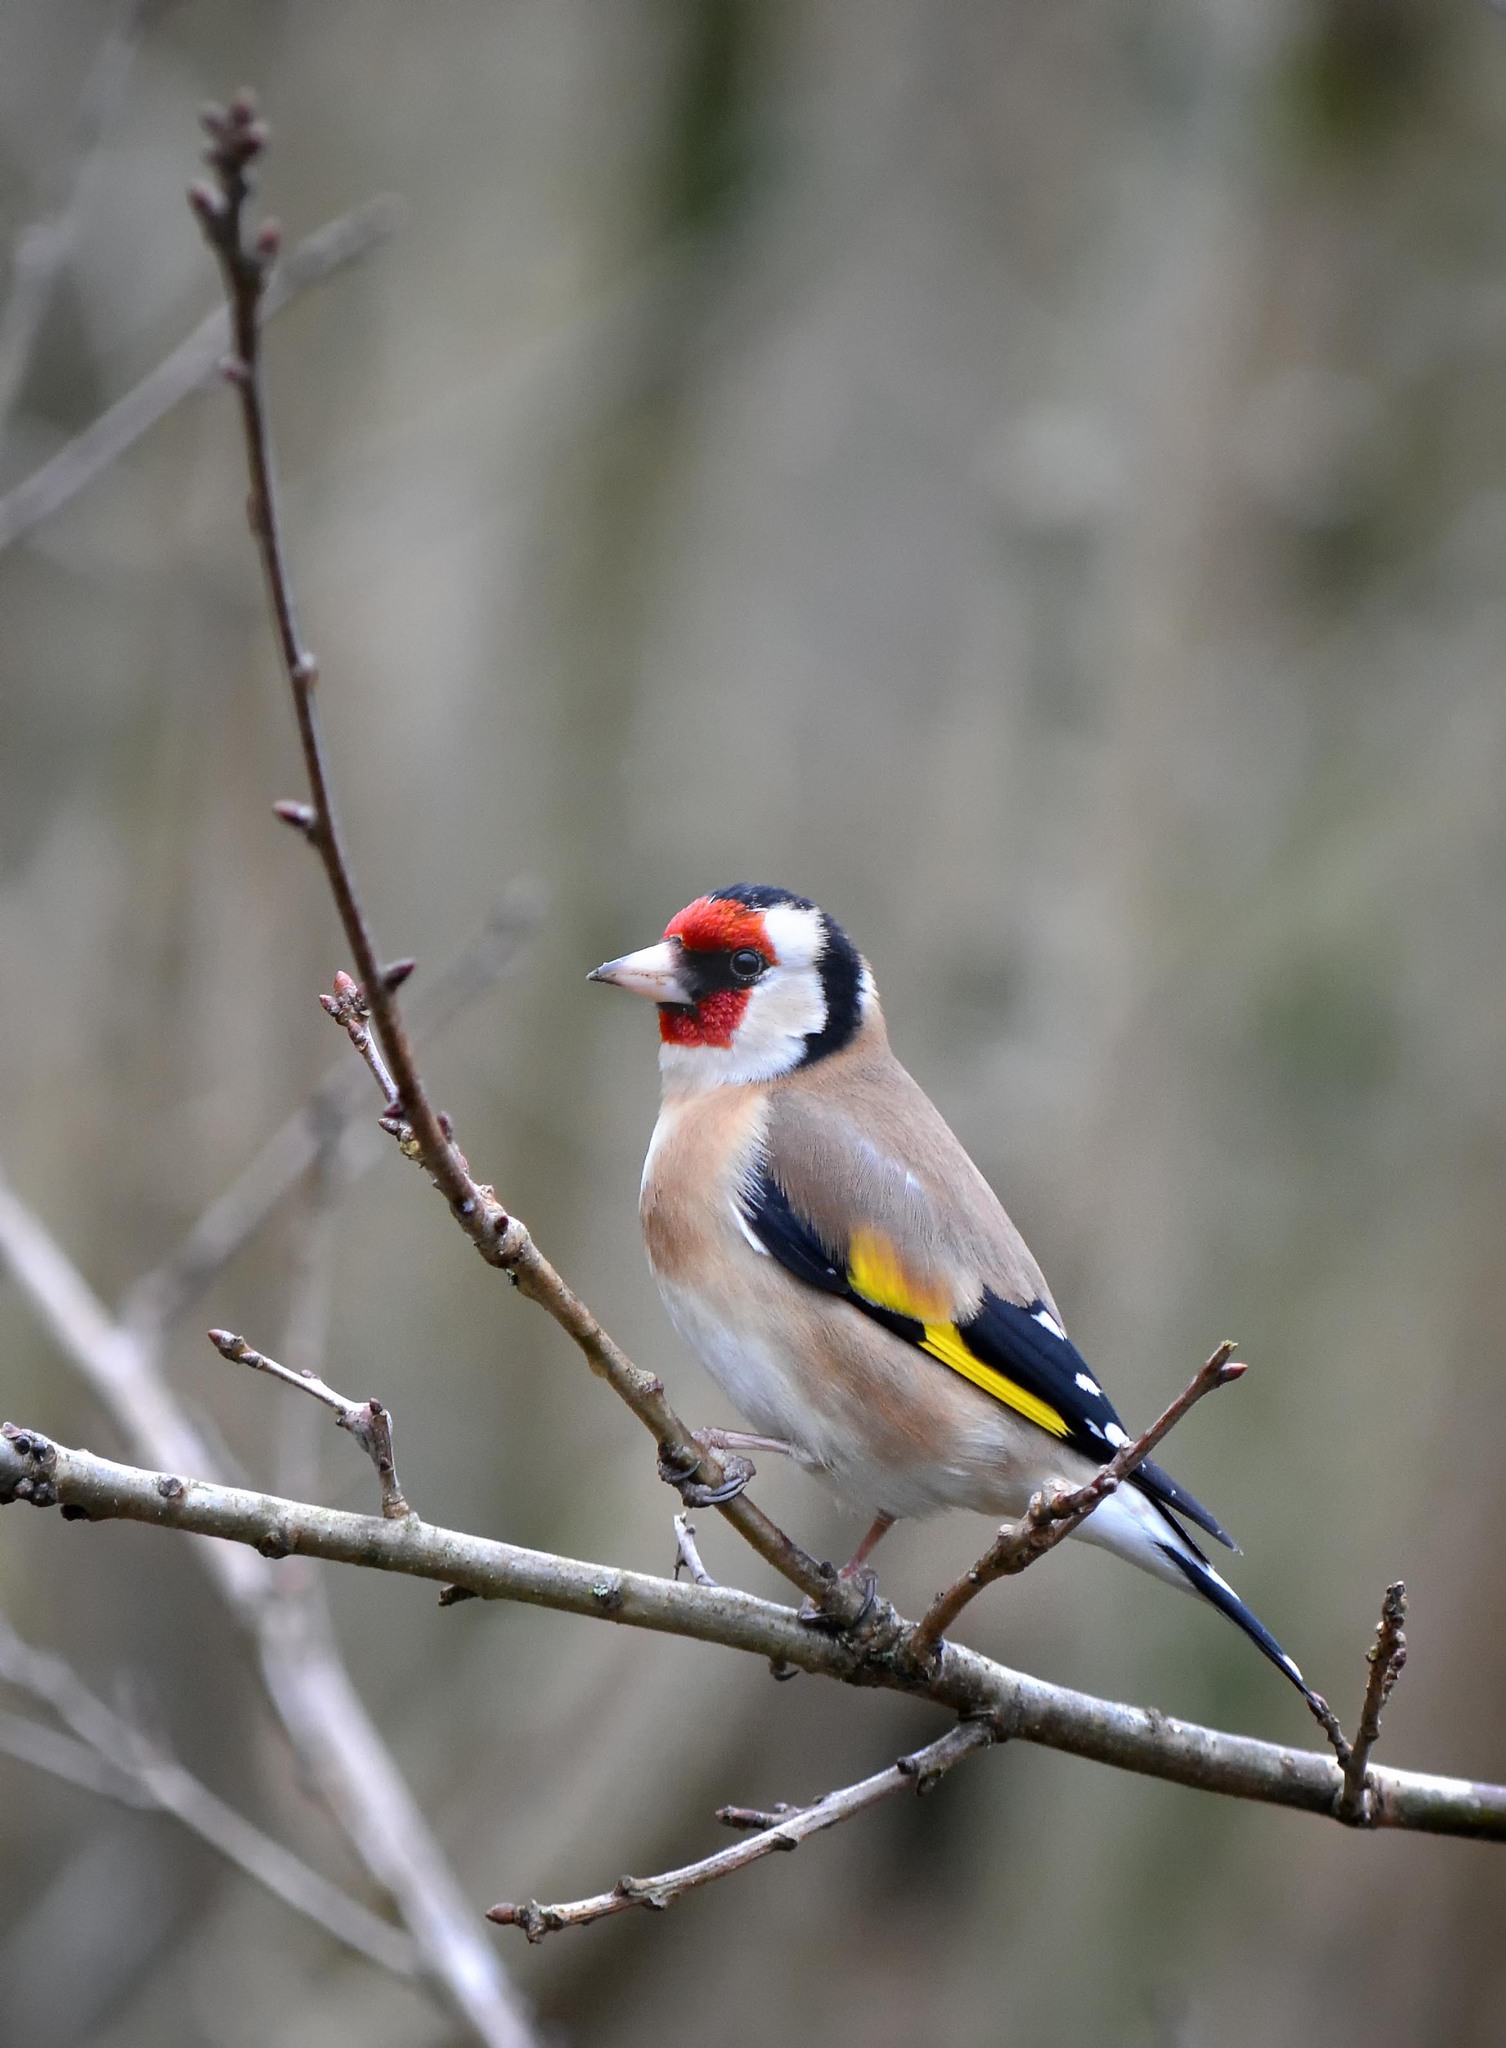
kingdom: Animalia
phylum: Chordata
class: Aves
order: Passeriformes
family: Fringillidae
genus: Carduelis
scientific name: Carduelis carduelis
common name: European goldfinch
